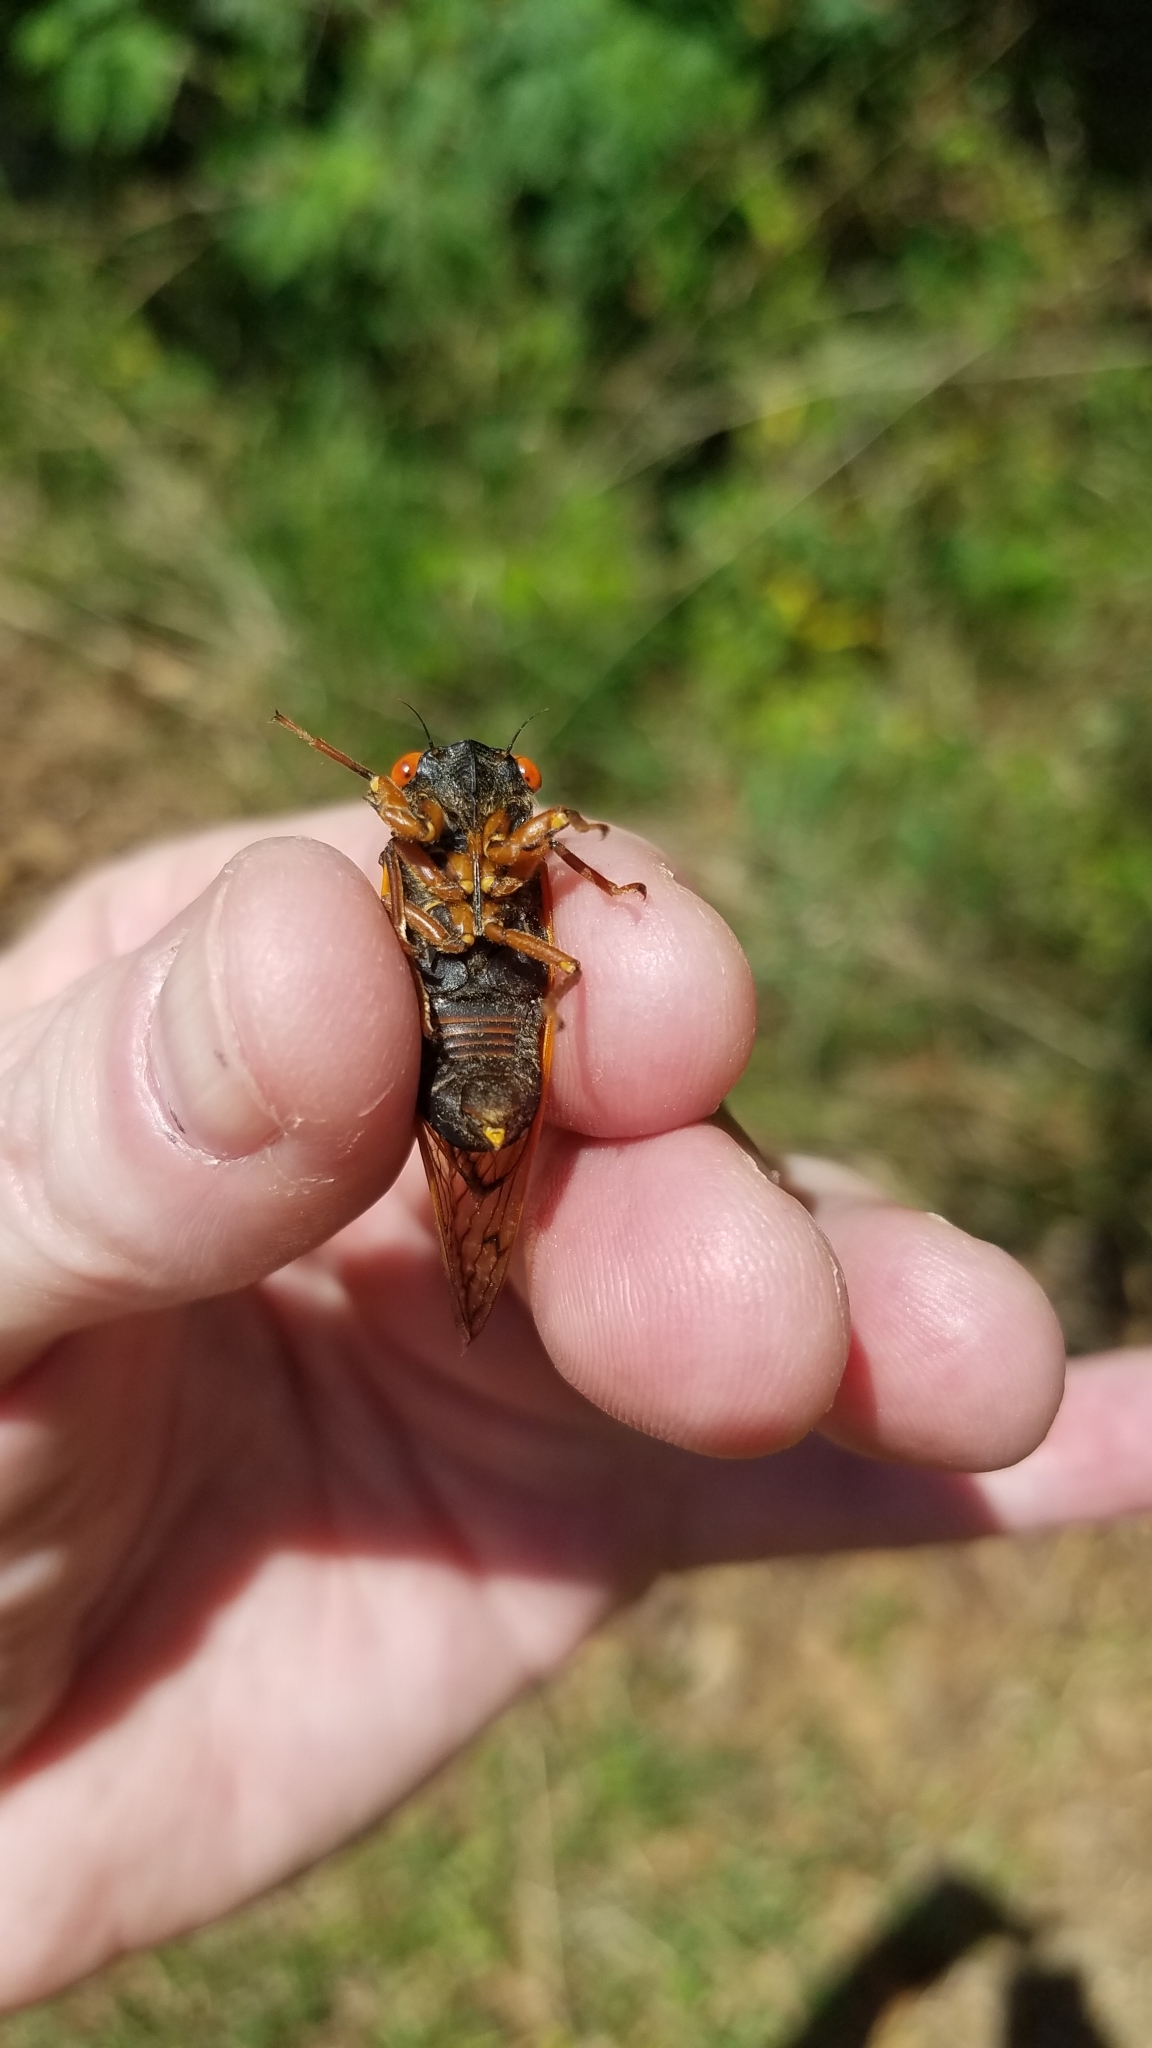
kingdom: Animalia
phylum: Arthropoda
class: Insecta
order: Hemiptera
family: Cicadidae
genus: Magicicada
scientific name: Magicicada septendecula
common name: Decula periodical cicada
